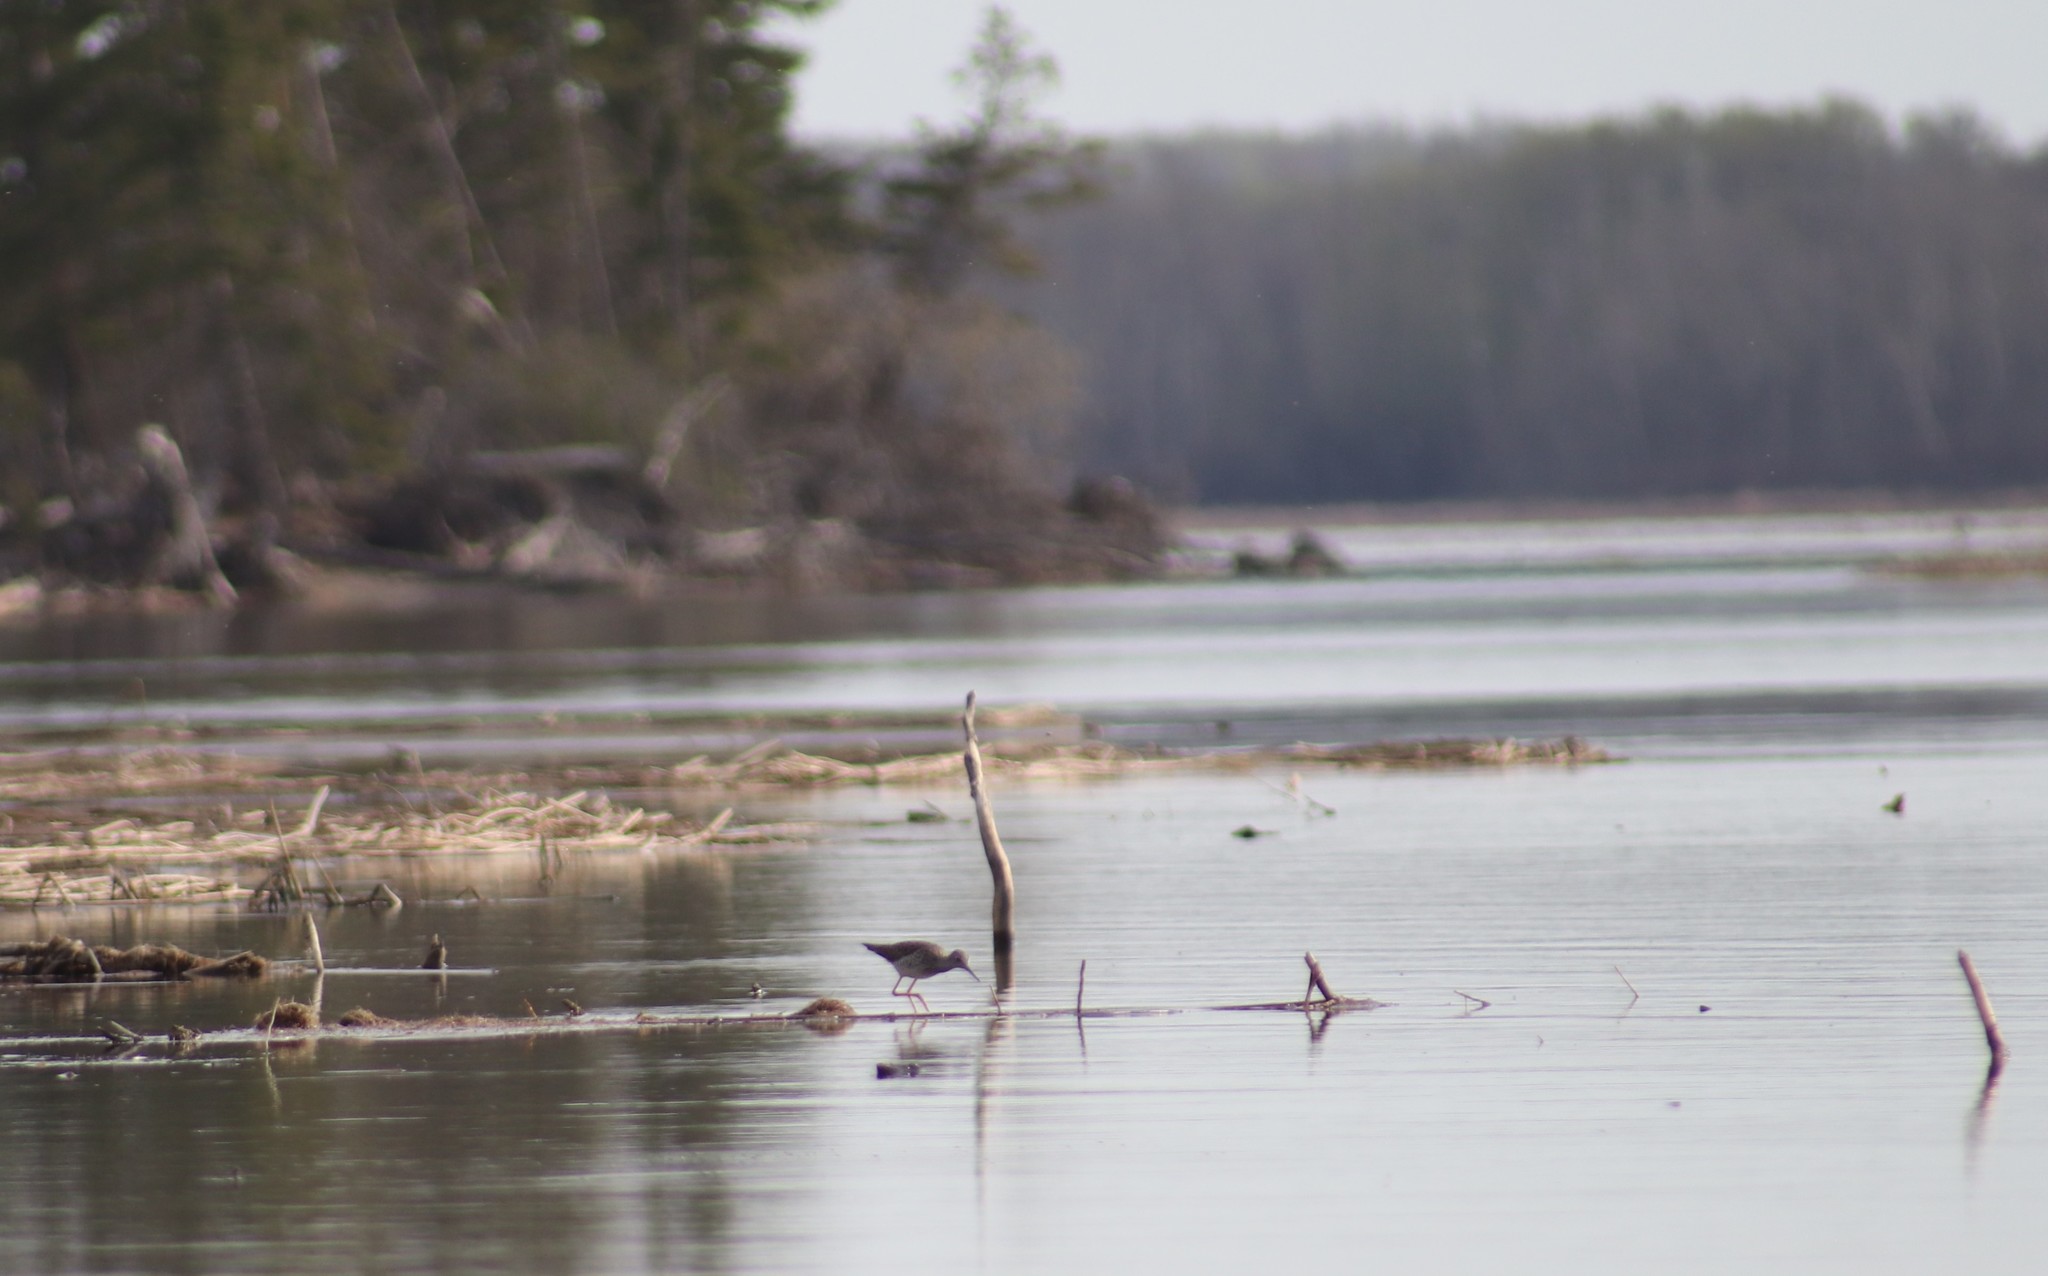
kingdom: Animalia
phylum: Chordata
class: Aves
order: Charadriiformes
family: Scolopacidae
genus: Tringa
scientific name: Tringa flavipes
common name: Lesser yellowlegs
